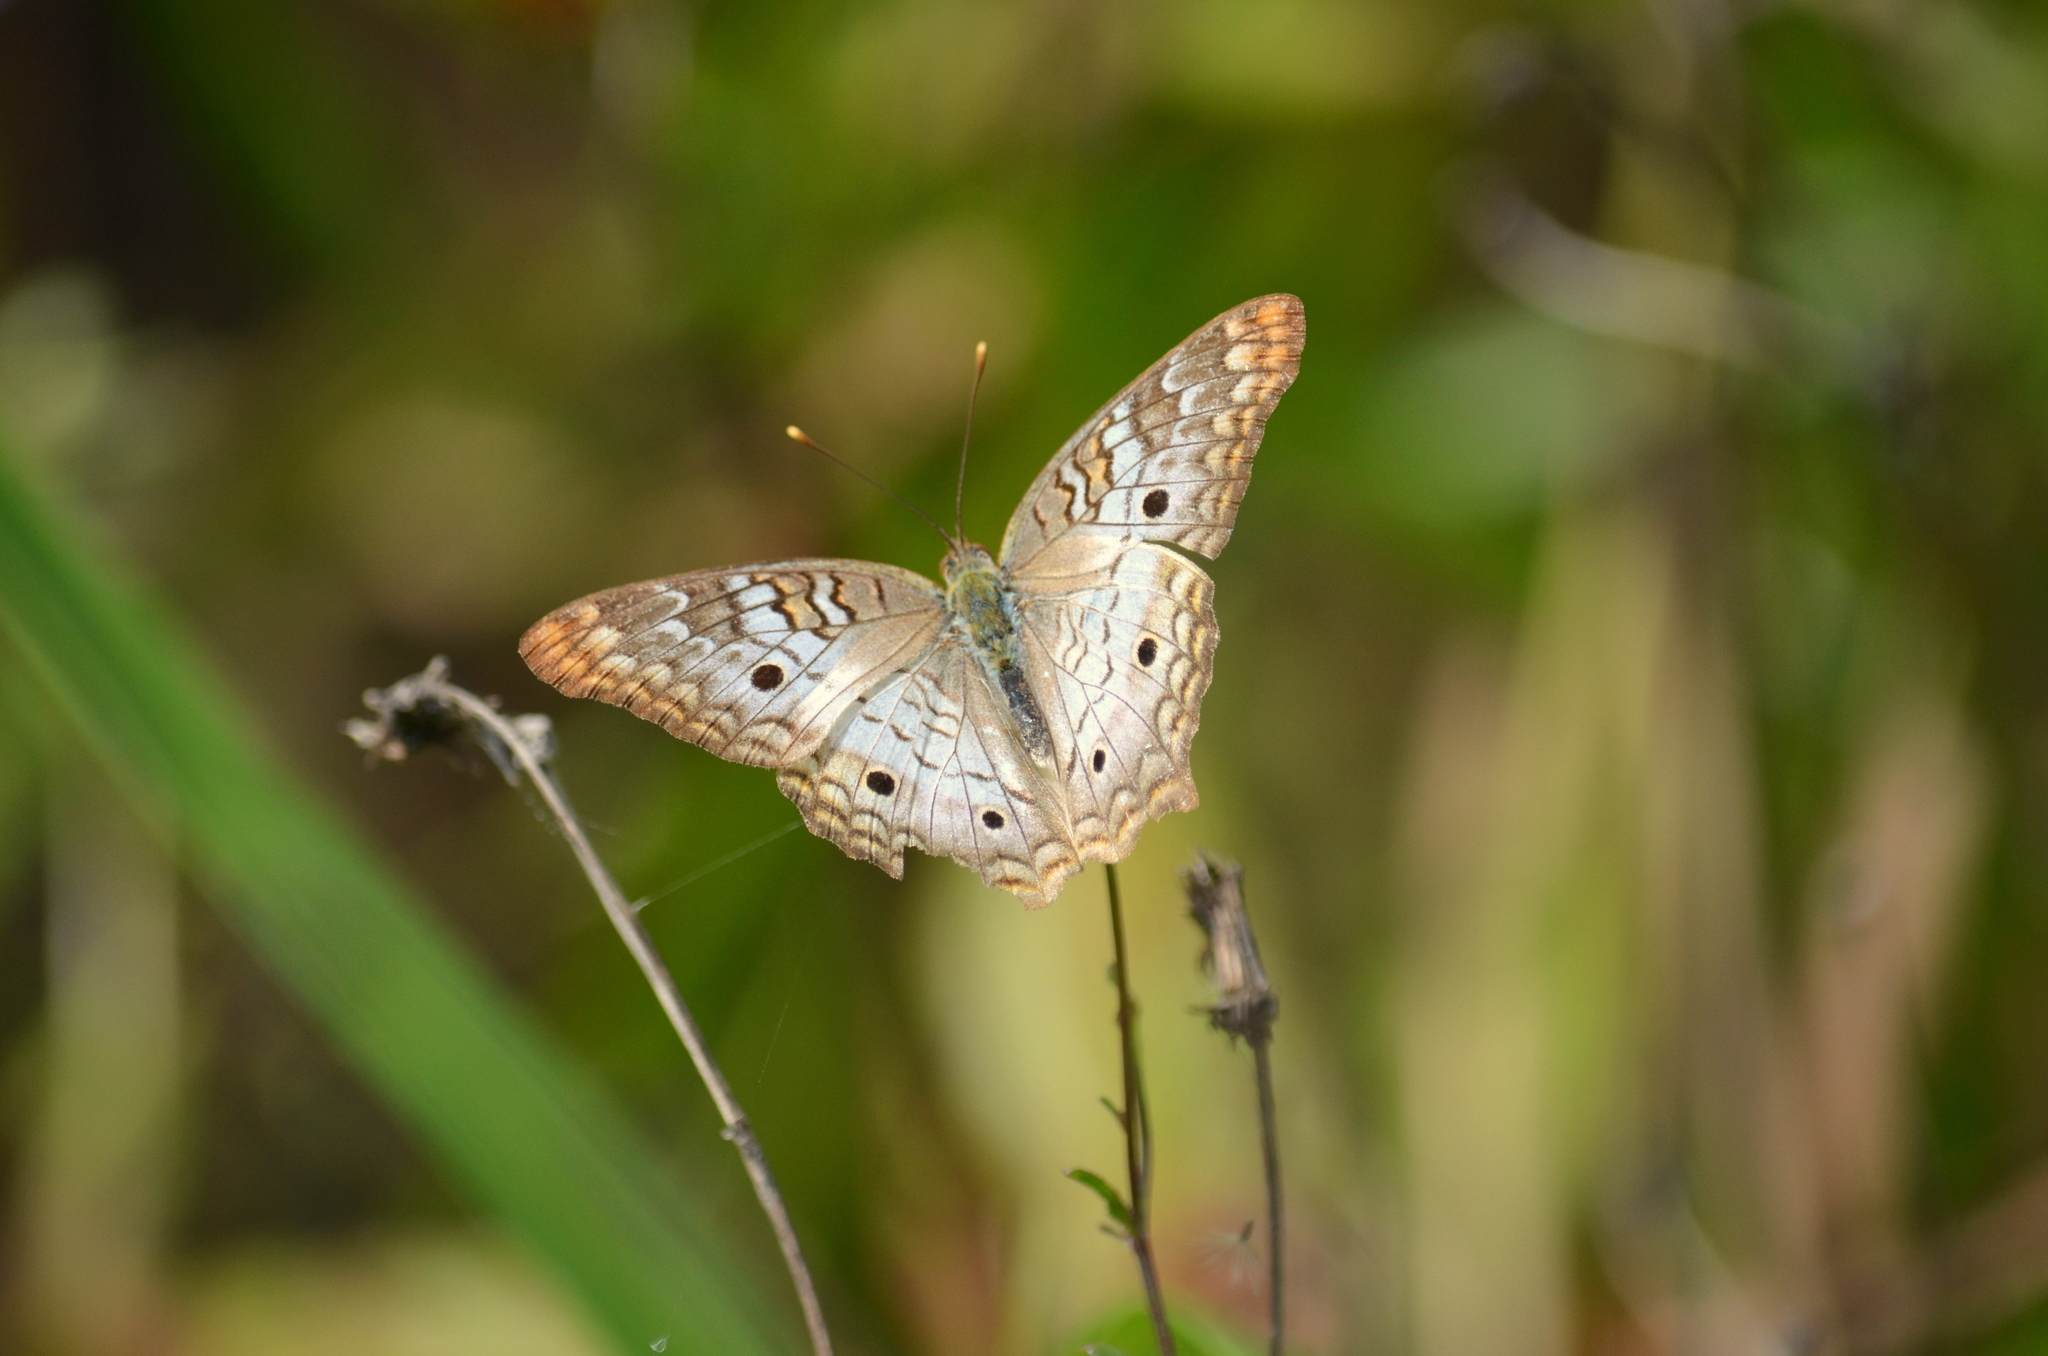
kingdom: Animalia
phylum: Arthropoda
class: Insecta
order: Lepidoptera
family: Nymphalidae
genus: Anartia
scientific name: Anartia jatrophae
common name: White peacock
